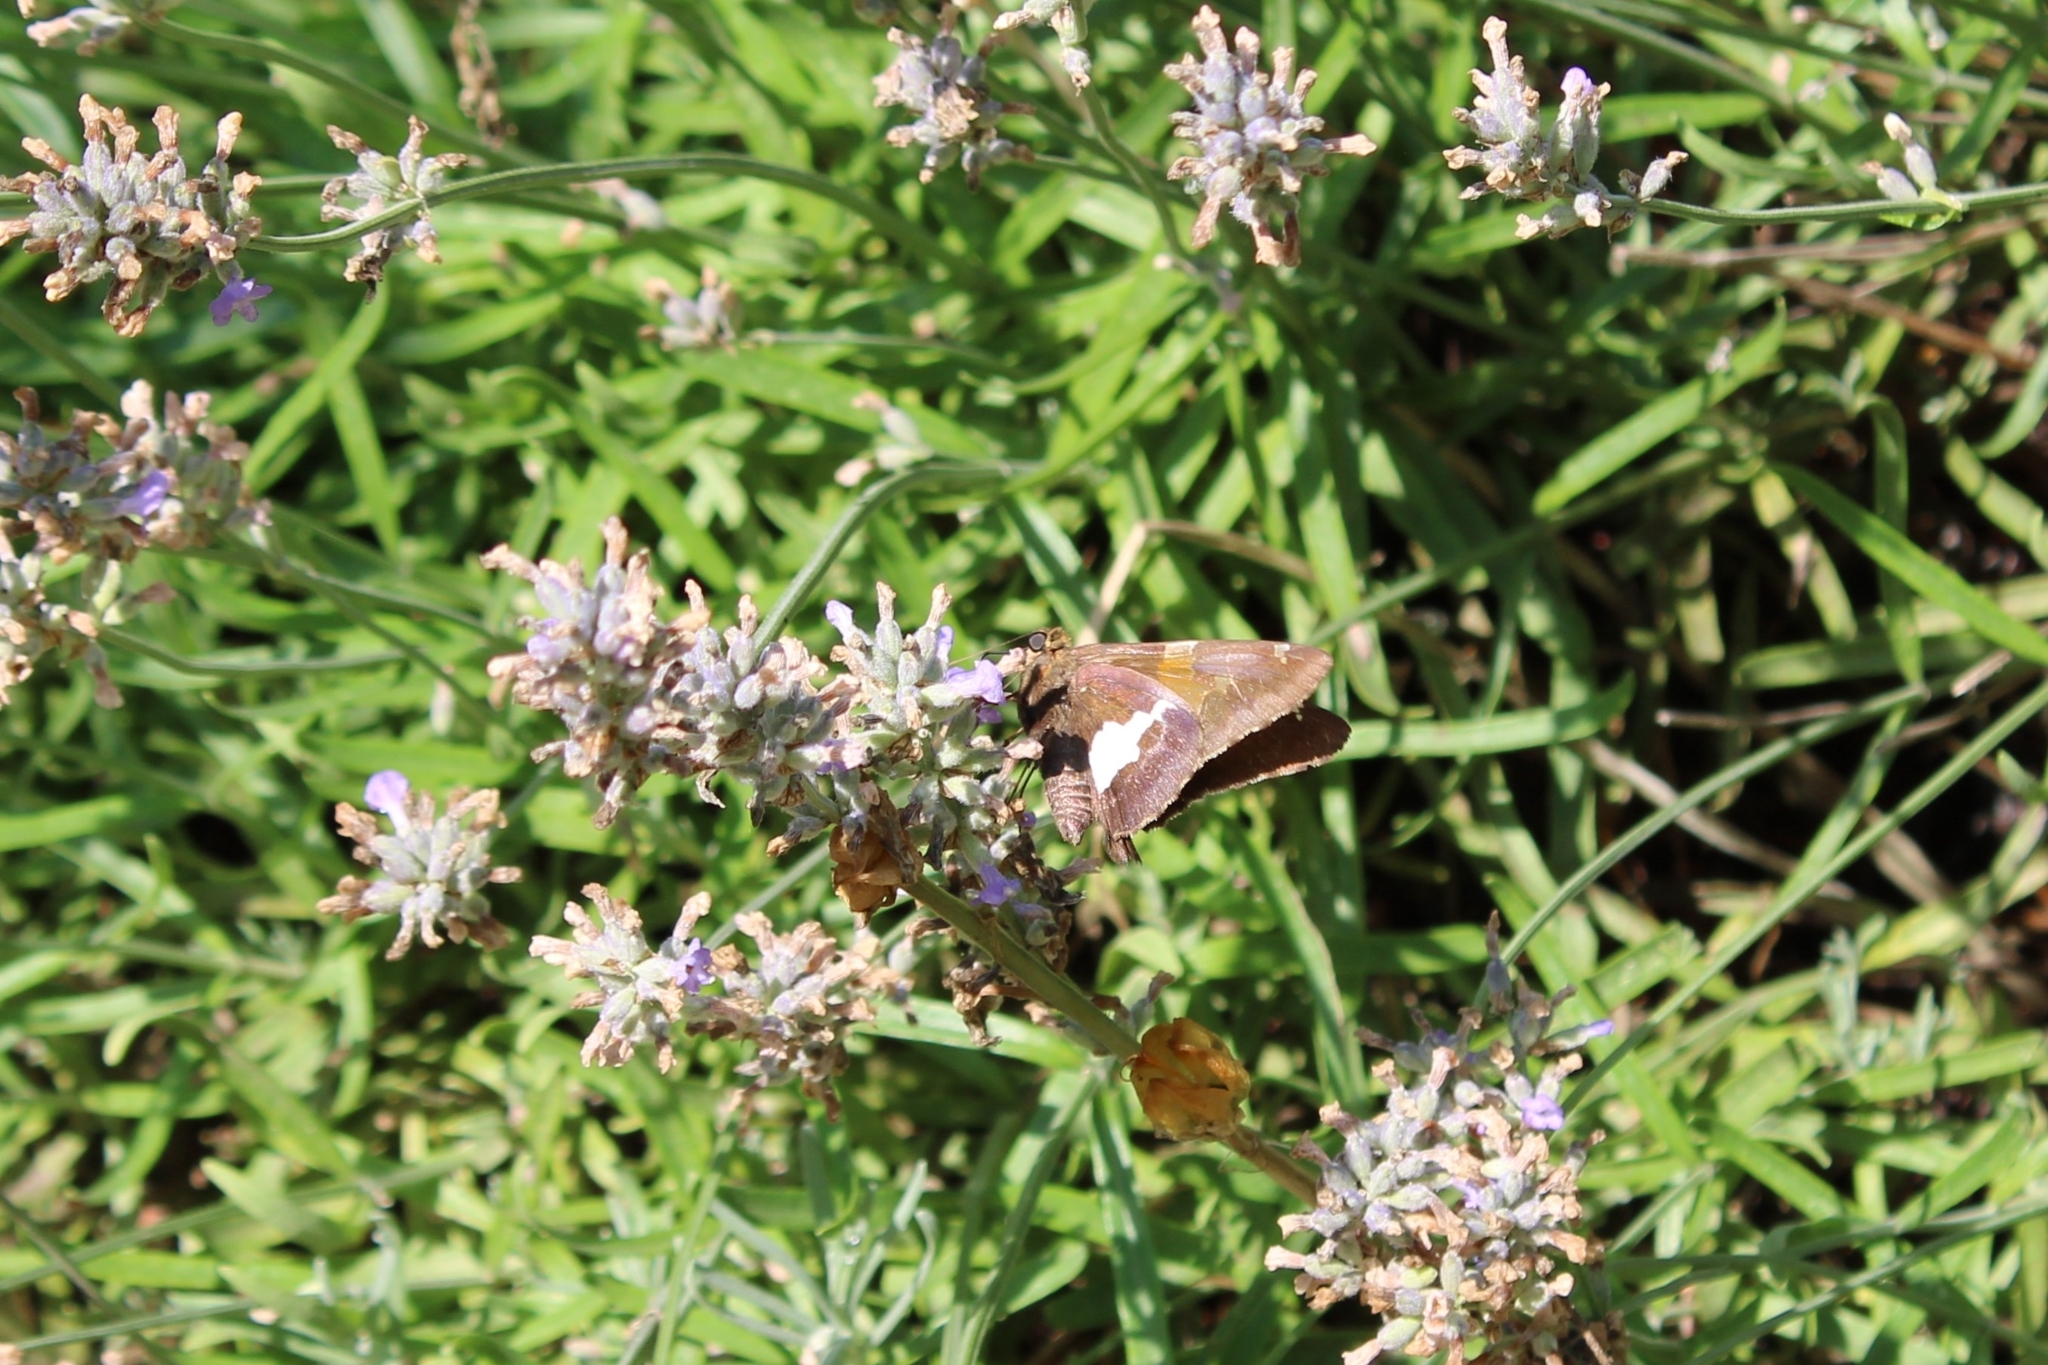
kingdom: Animalia
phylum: Arthropoda
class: Insecta
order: Lepidoptera
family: Hesperiidae
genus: Epargyreus
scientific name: Epargyreus clarus
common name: Silver-spotted skipper
